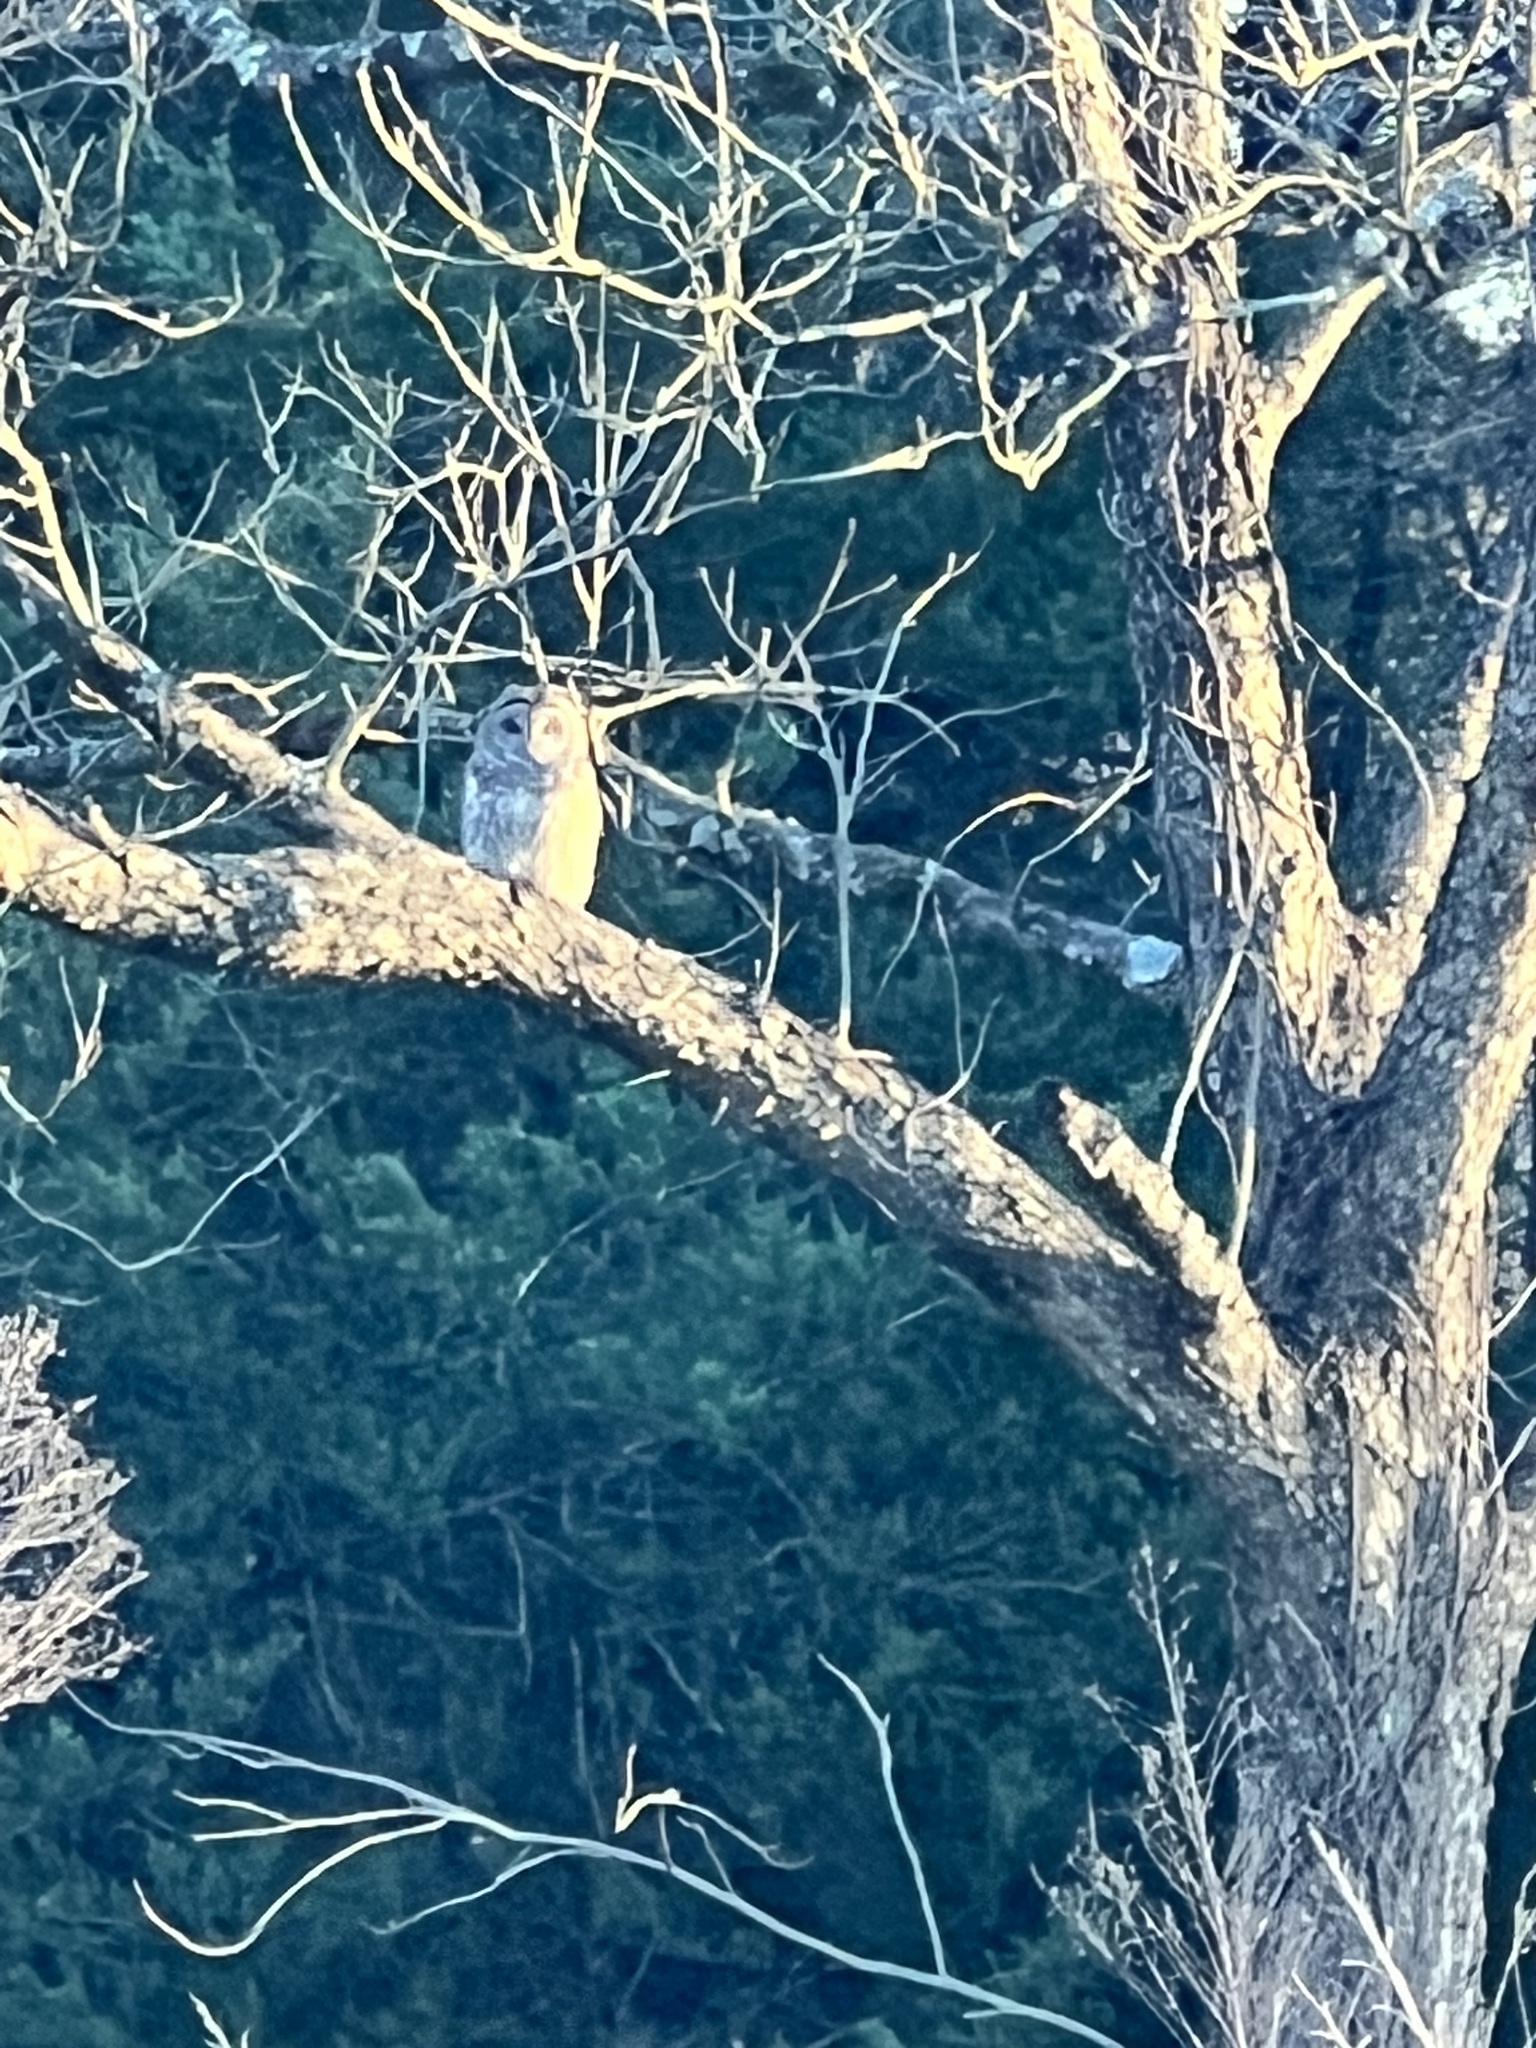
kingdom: Animalia
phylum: Chordata
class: Aves
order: Strigiformes
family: Strigidae
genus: Strix
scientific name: Strix varia
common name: Barred owl
